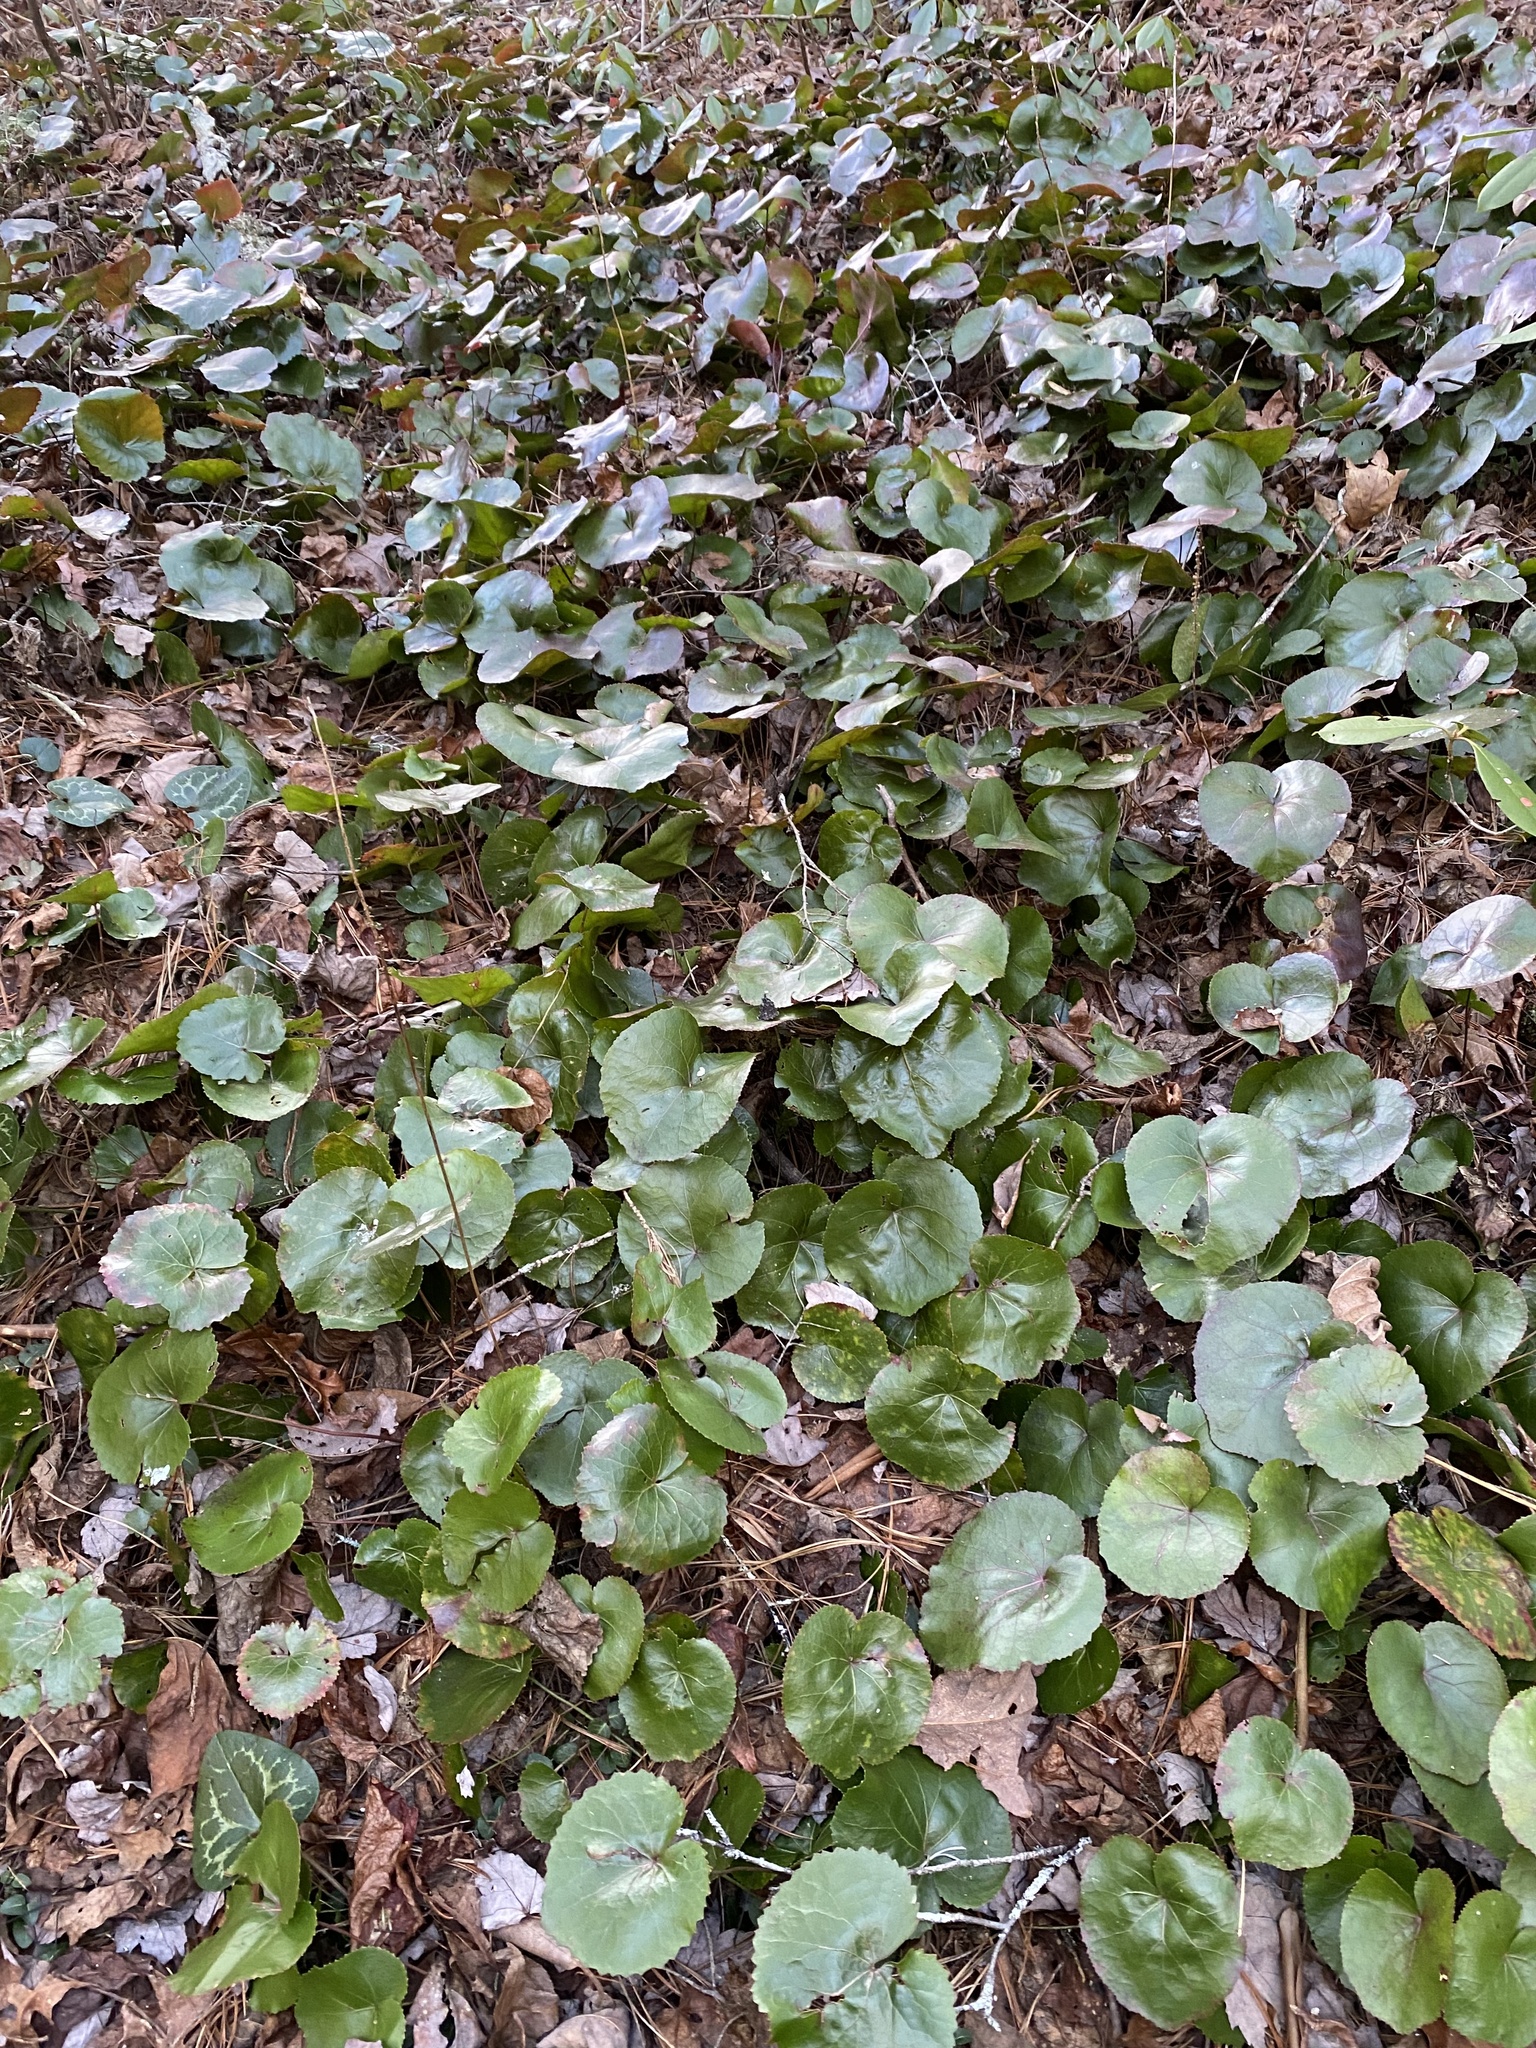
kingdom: Plantae
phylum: Tracheophyta
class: Magnoliopsida
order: Ericales
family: Diapensiaceae
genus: Galax
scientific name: Galax urceolata
